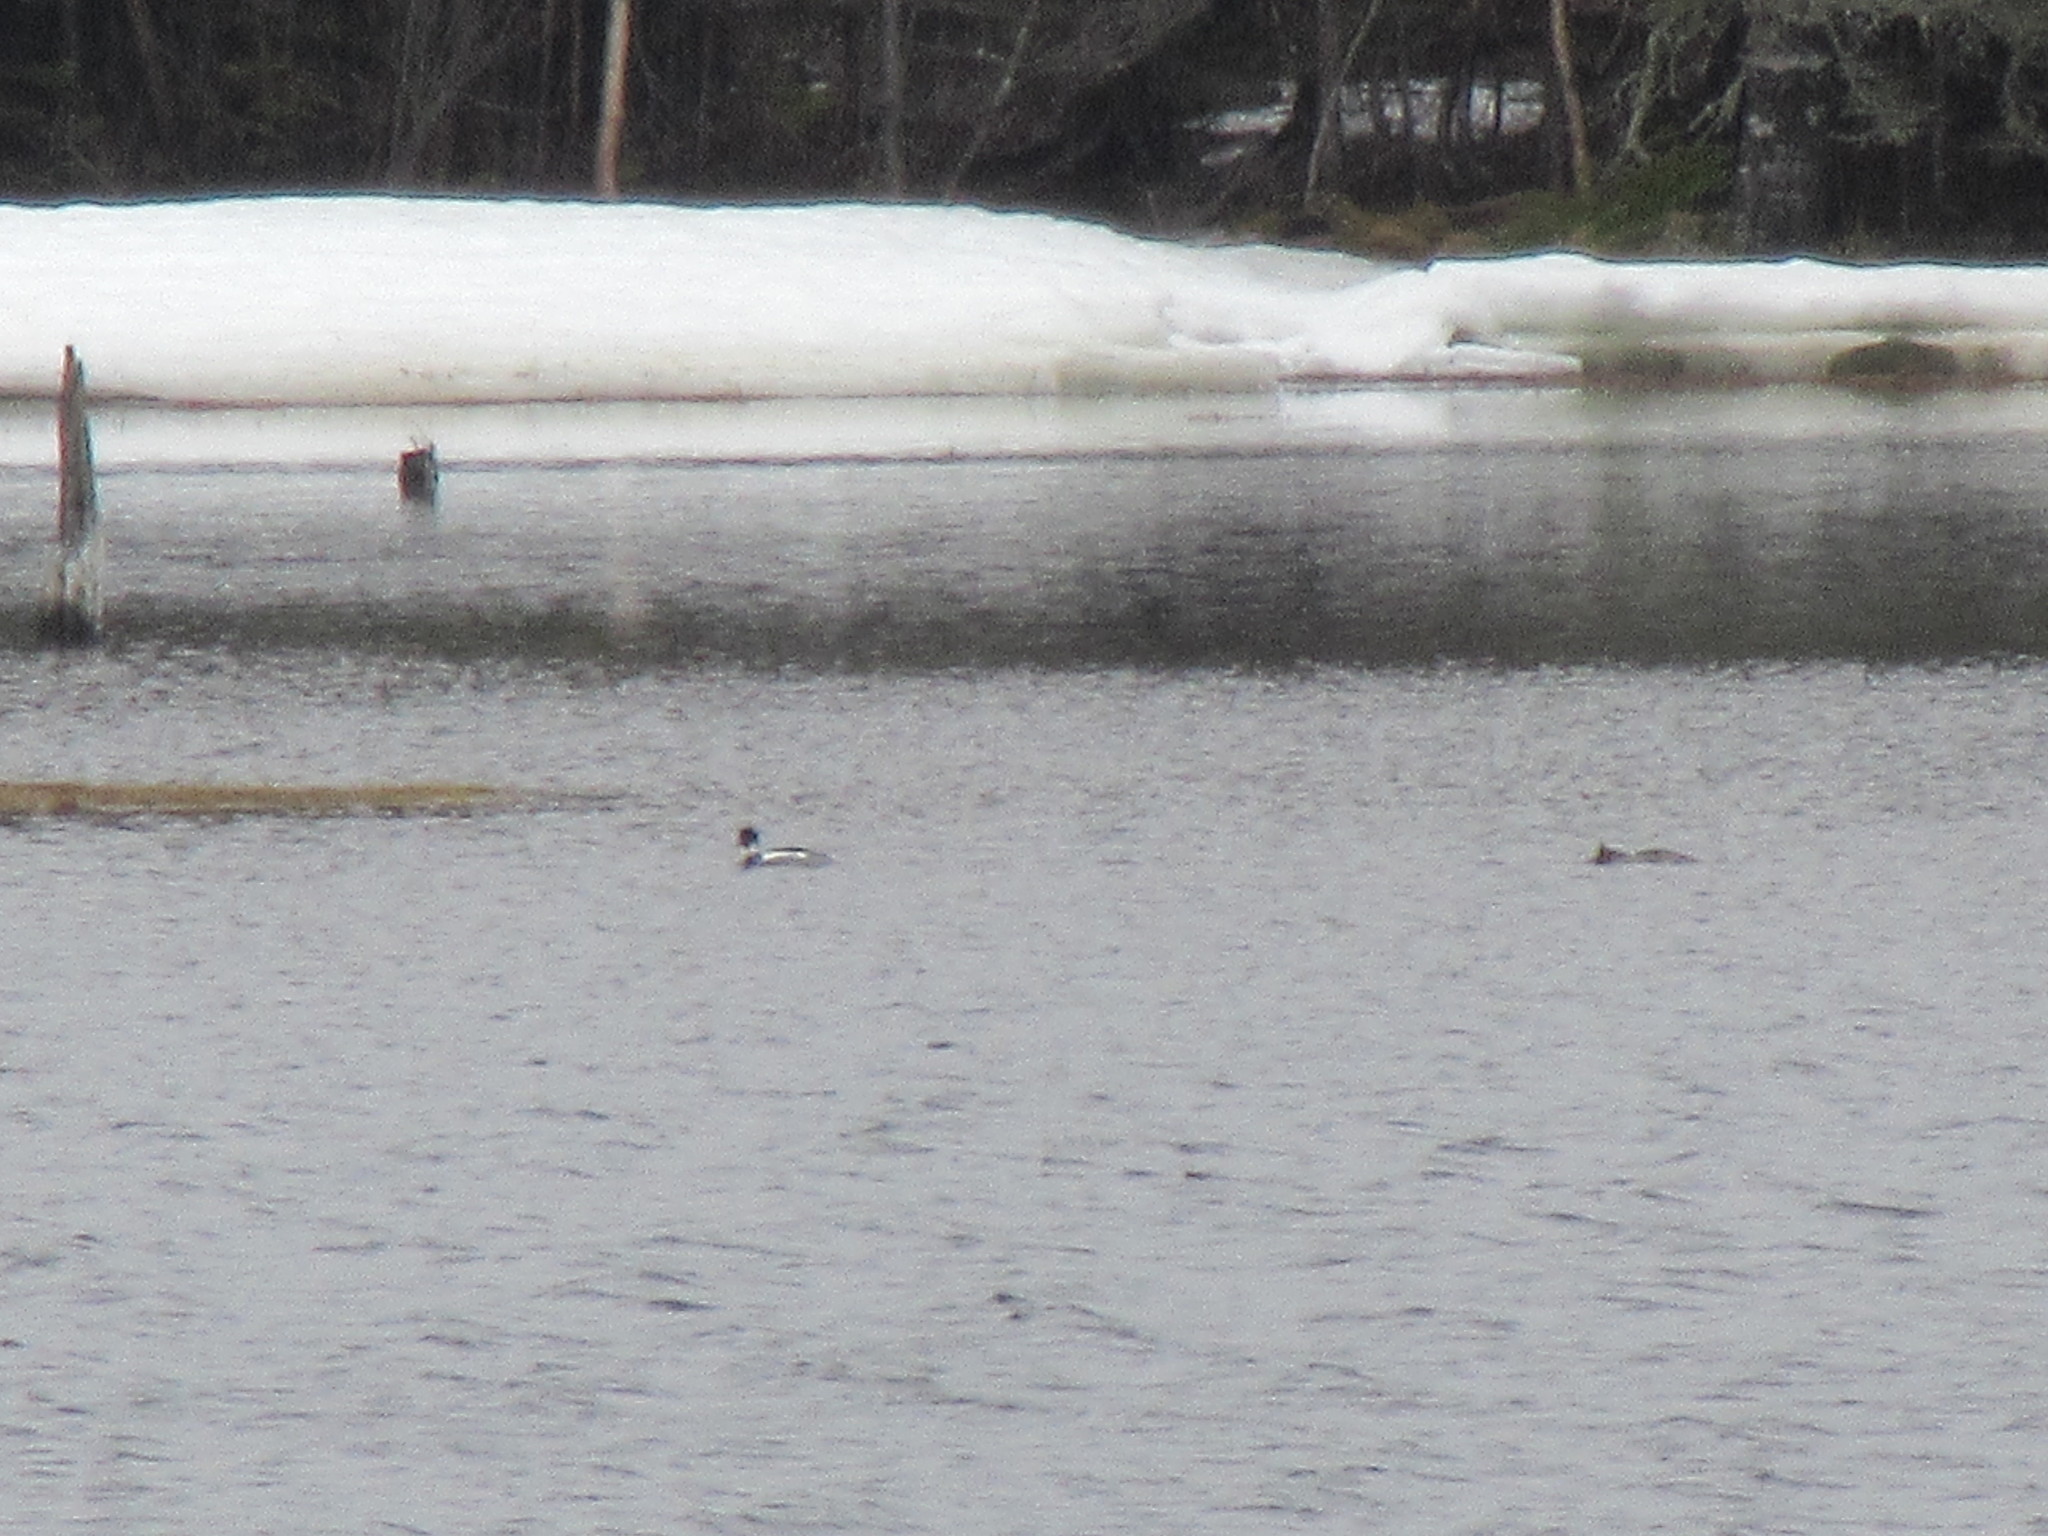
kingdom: Animalia
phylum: Chordata
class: Aves
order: Anseriformes
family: Anatidae
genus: Mergus
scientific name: Mergus serrator
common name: Red-breasted merganser
